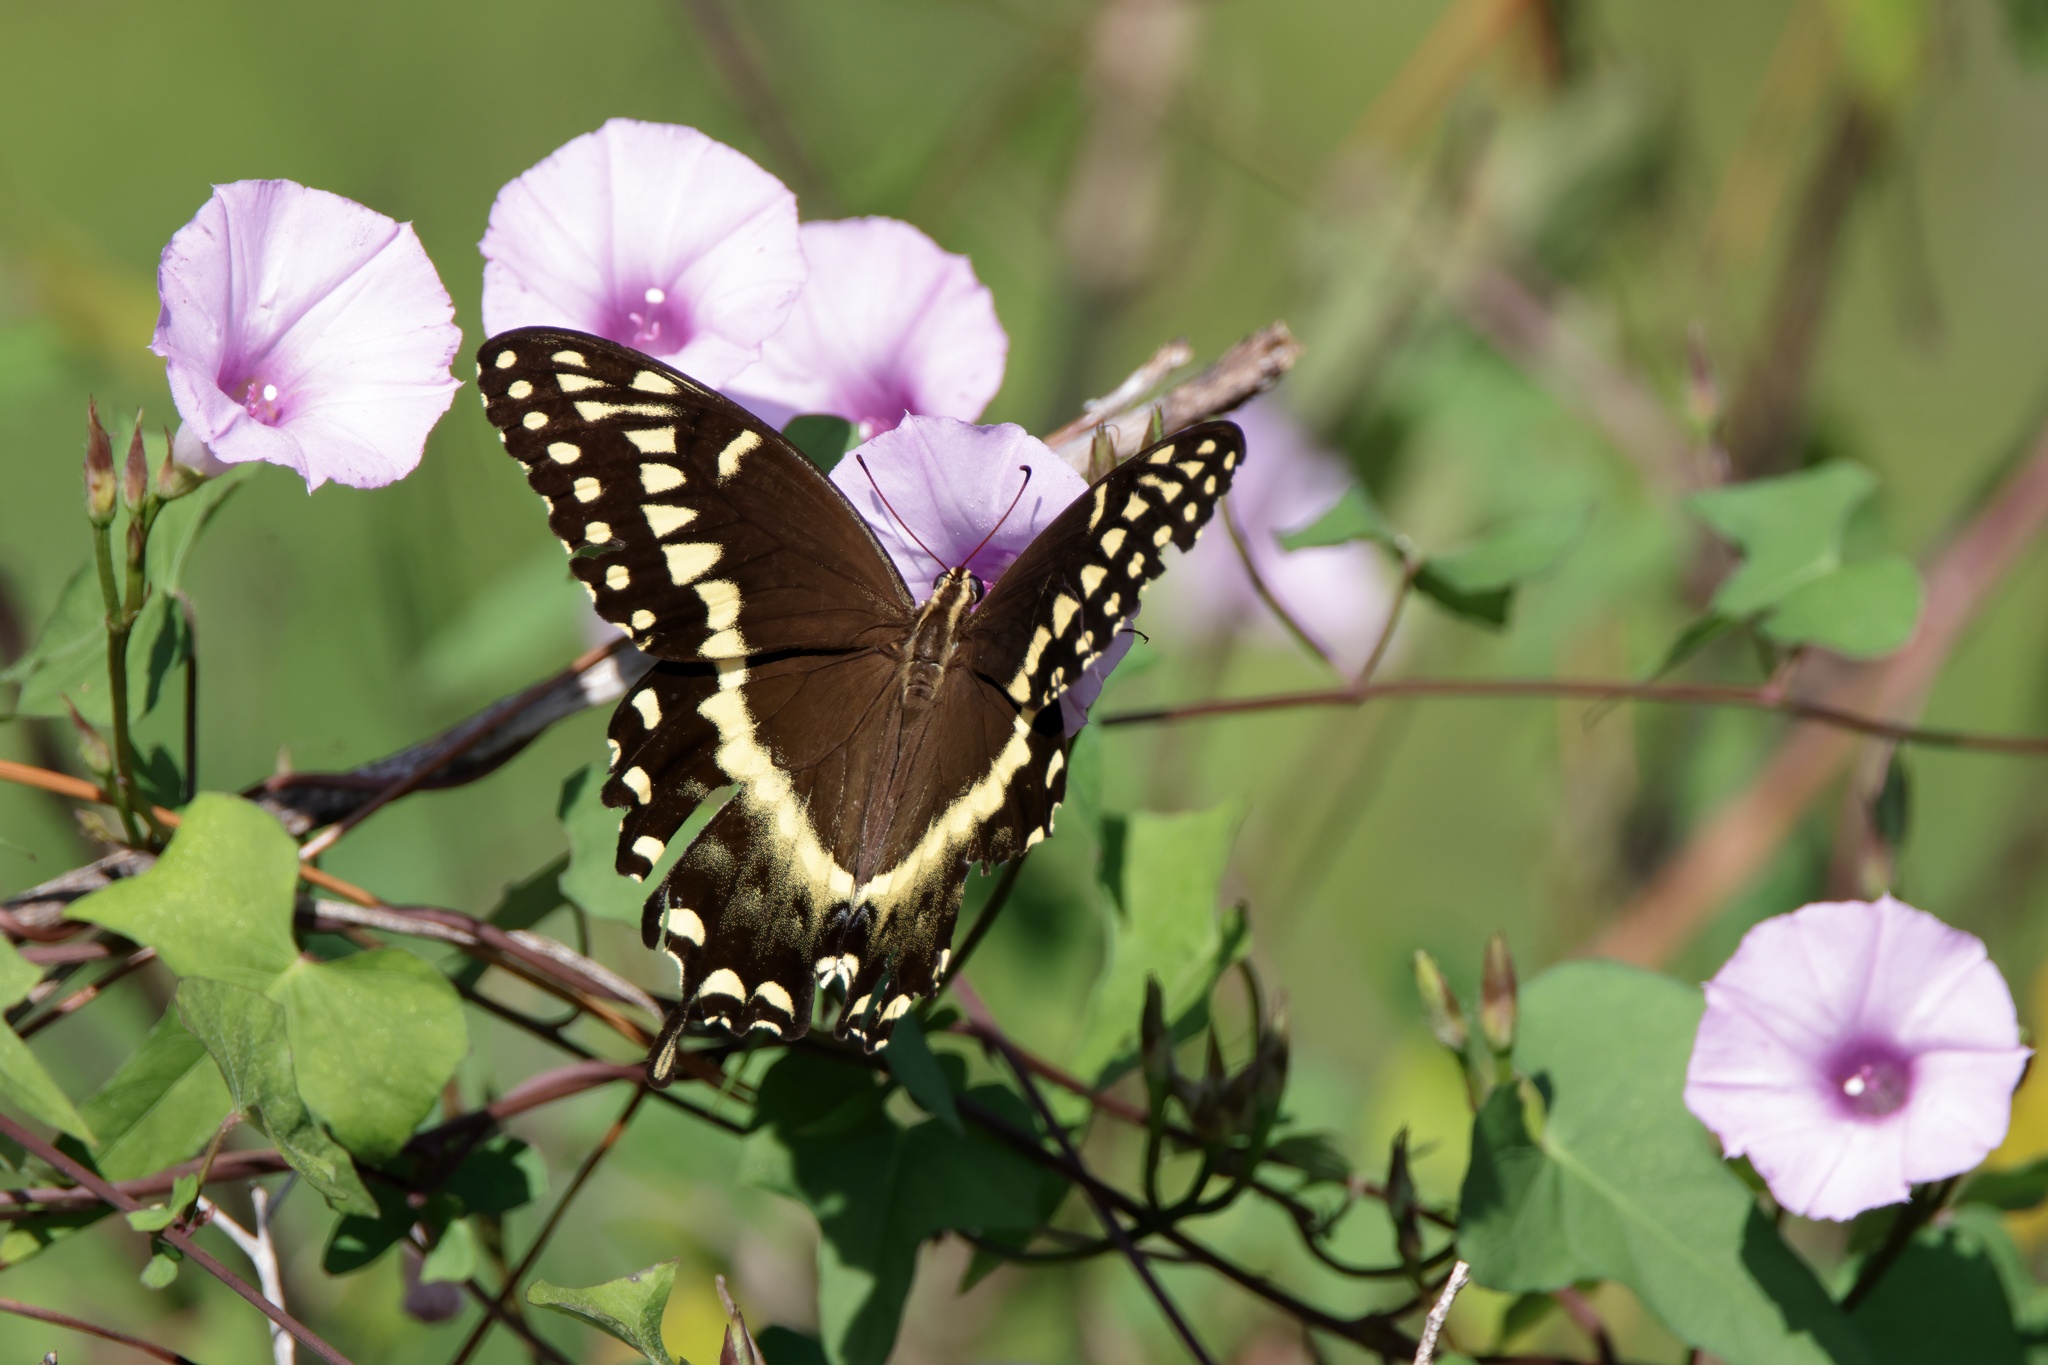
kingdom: Animalia
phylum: Arthropoda
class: Insecta
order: Lepidoptera
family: Papilionidae
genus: Papilio
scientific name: Papilio palamedes
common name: Palamedes swallowtail
